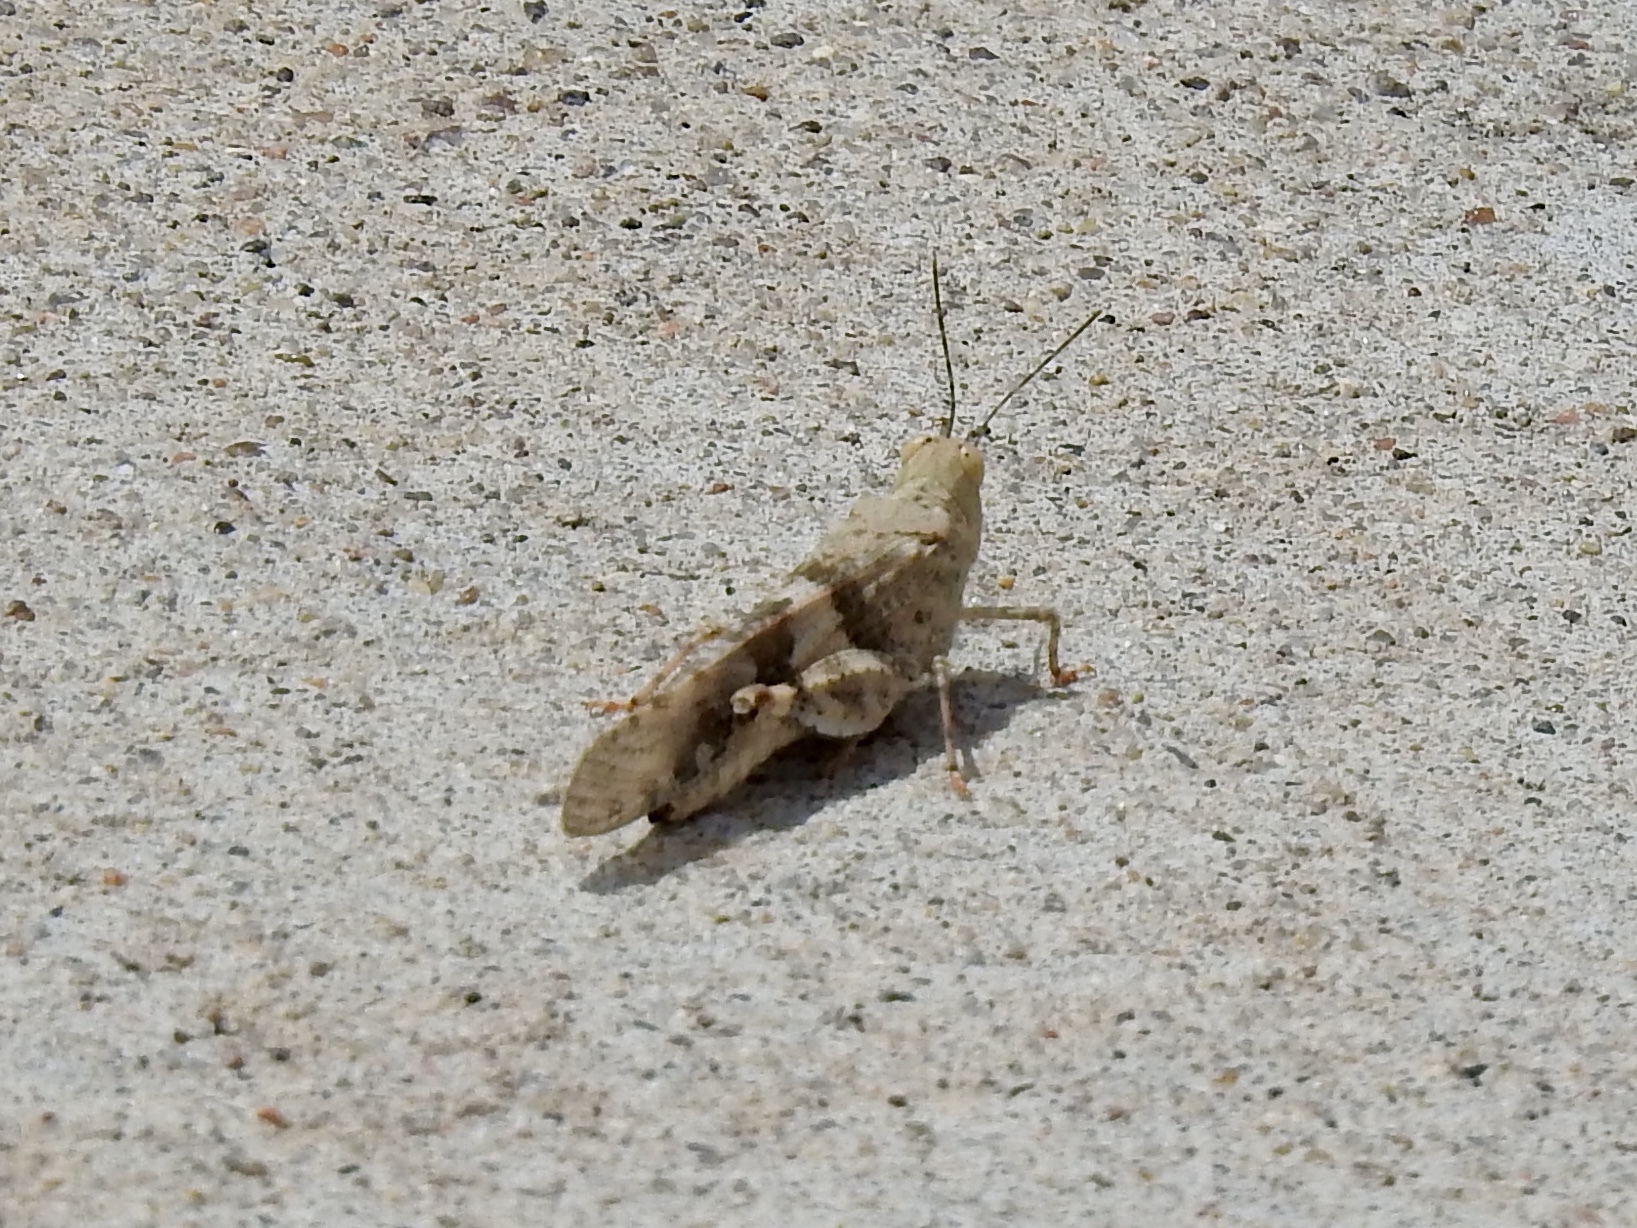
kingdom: Animalia
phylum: Arthropoda
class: Insecta
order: Orthoptera
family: Acrididae
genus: Trimerotropis
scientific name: Trimerotropis pallidipennis
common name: Pallid-winged grasshopper
